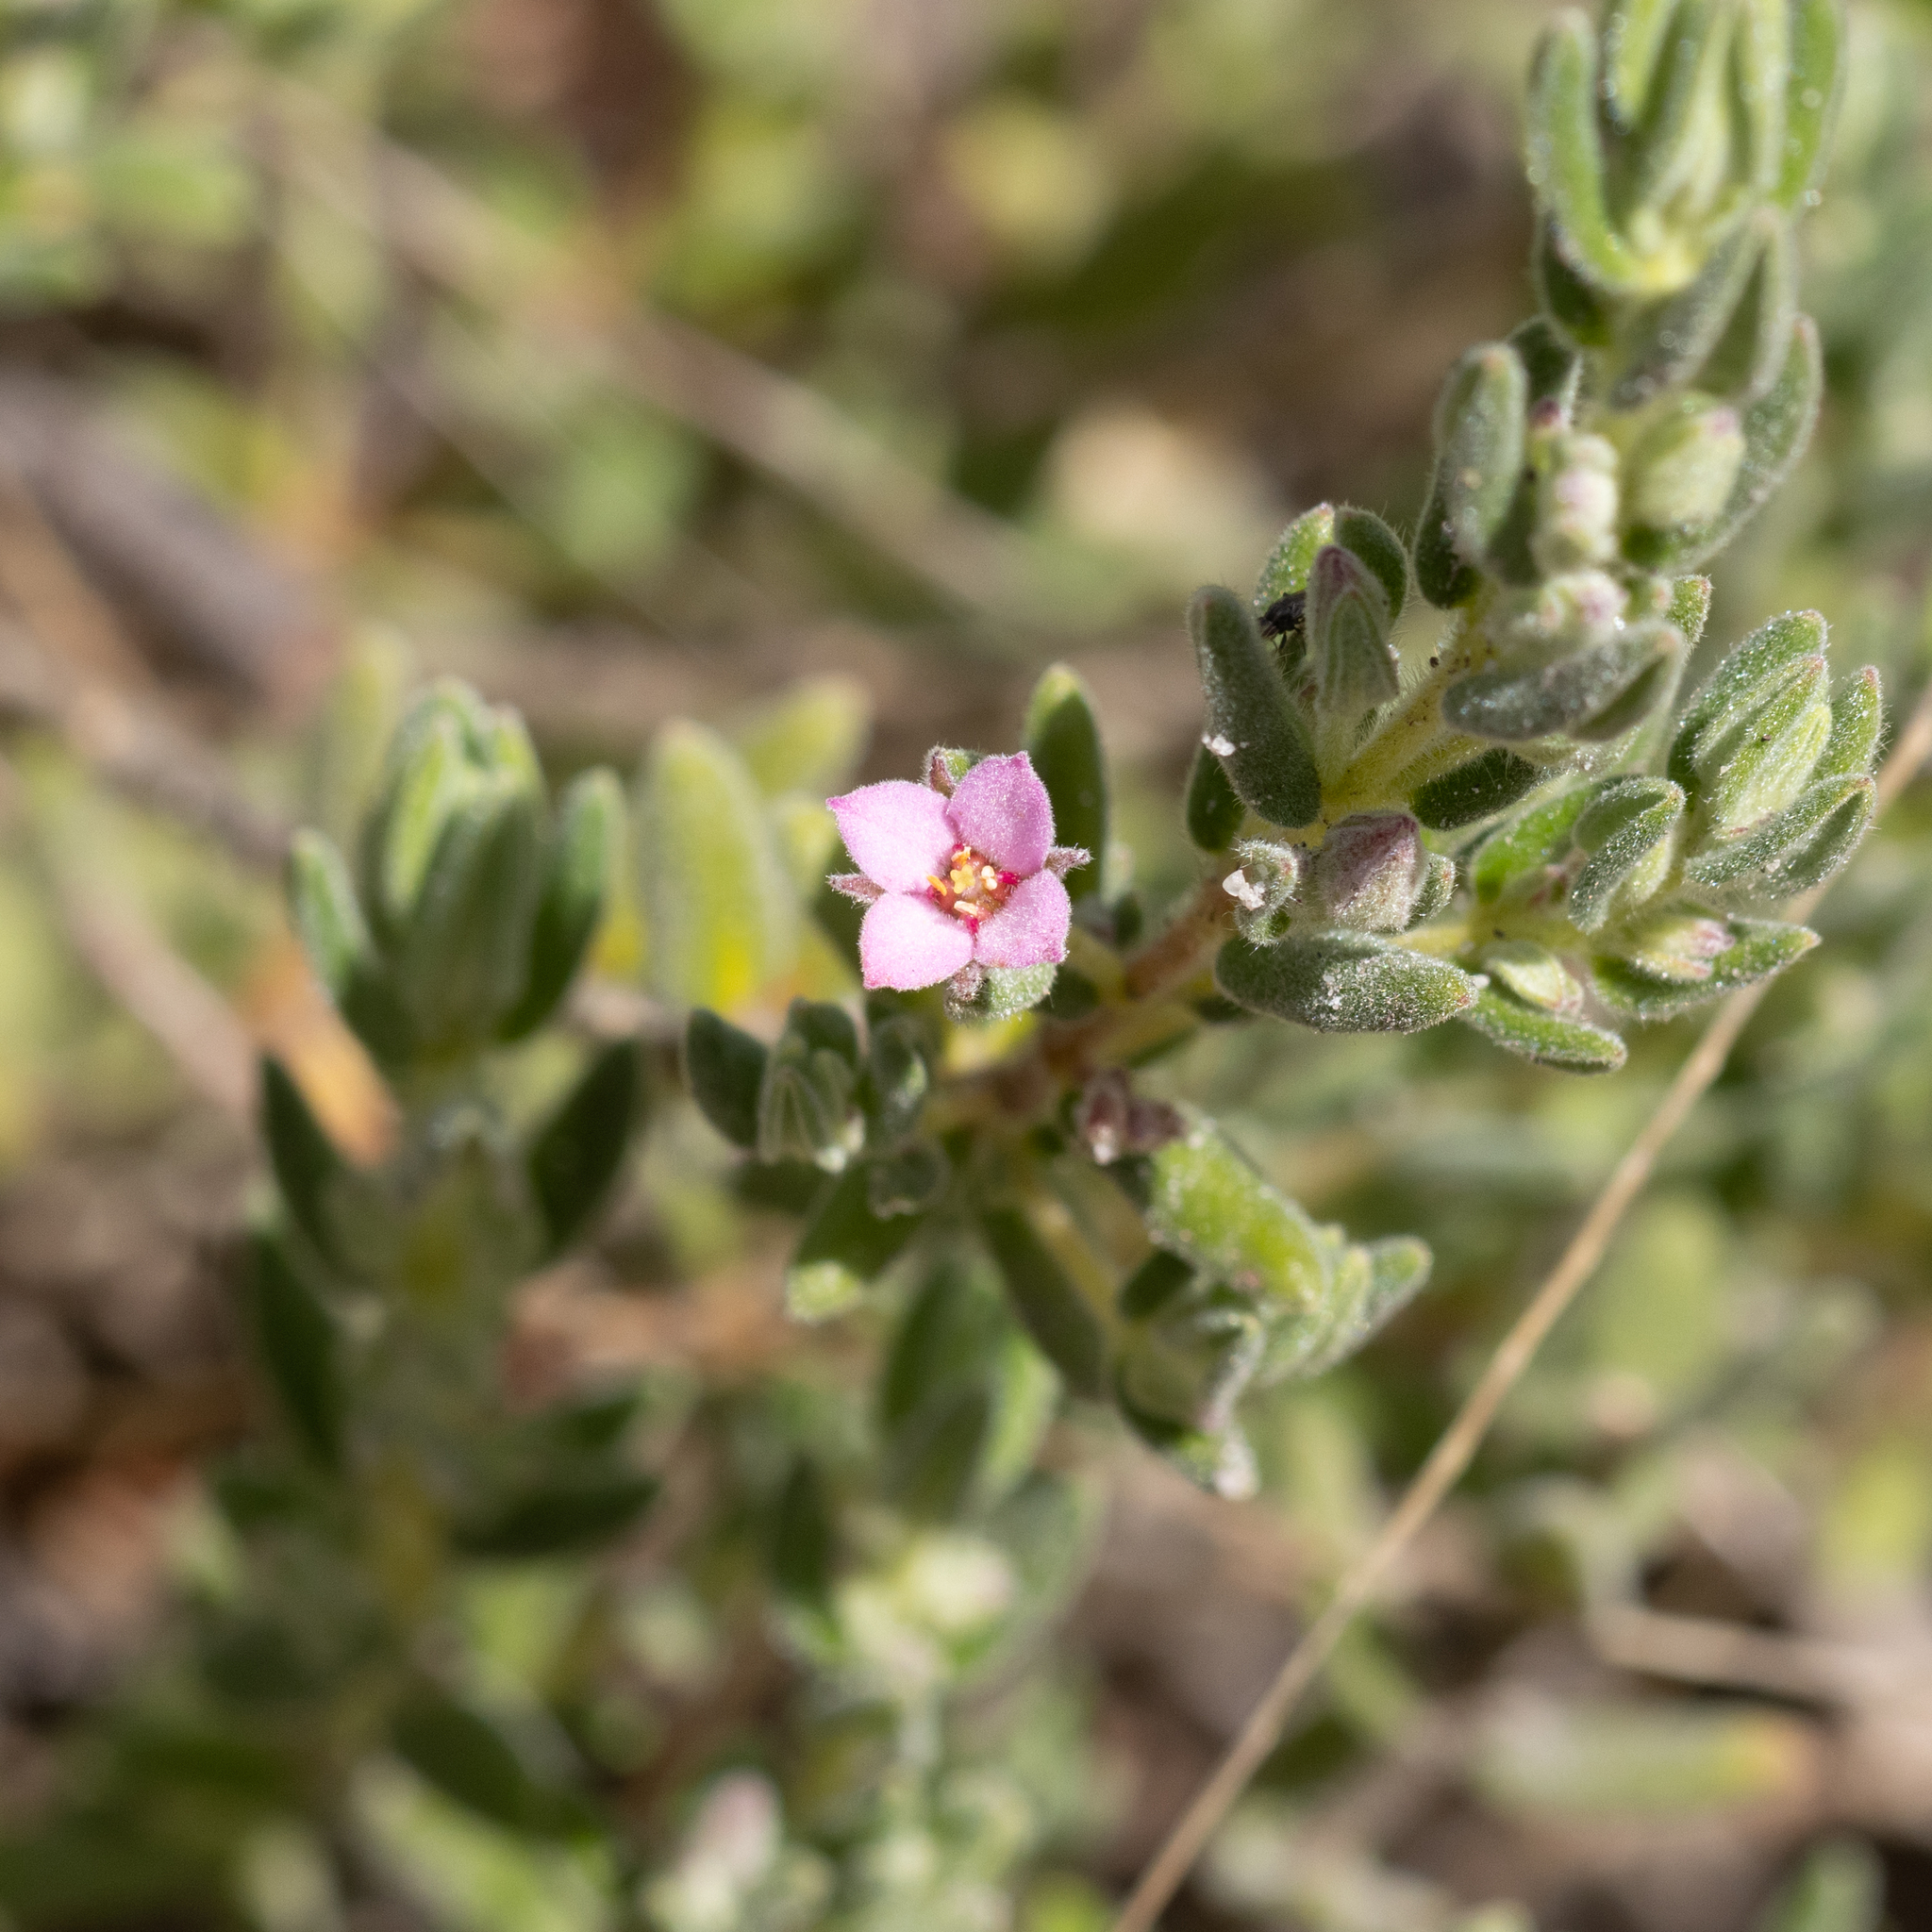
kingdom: Plantae
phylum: Tracheophyta
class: Magnoliopsida
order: Sapindales
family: Rutaceae
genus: Zieria
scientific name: Zieria veronicea
